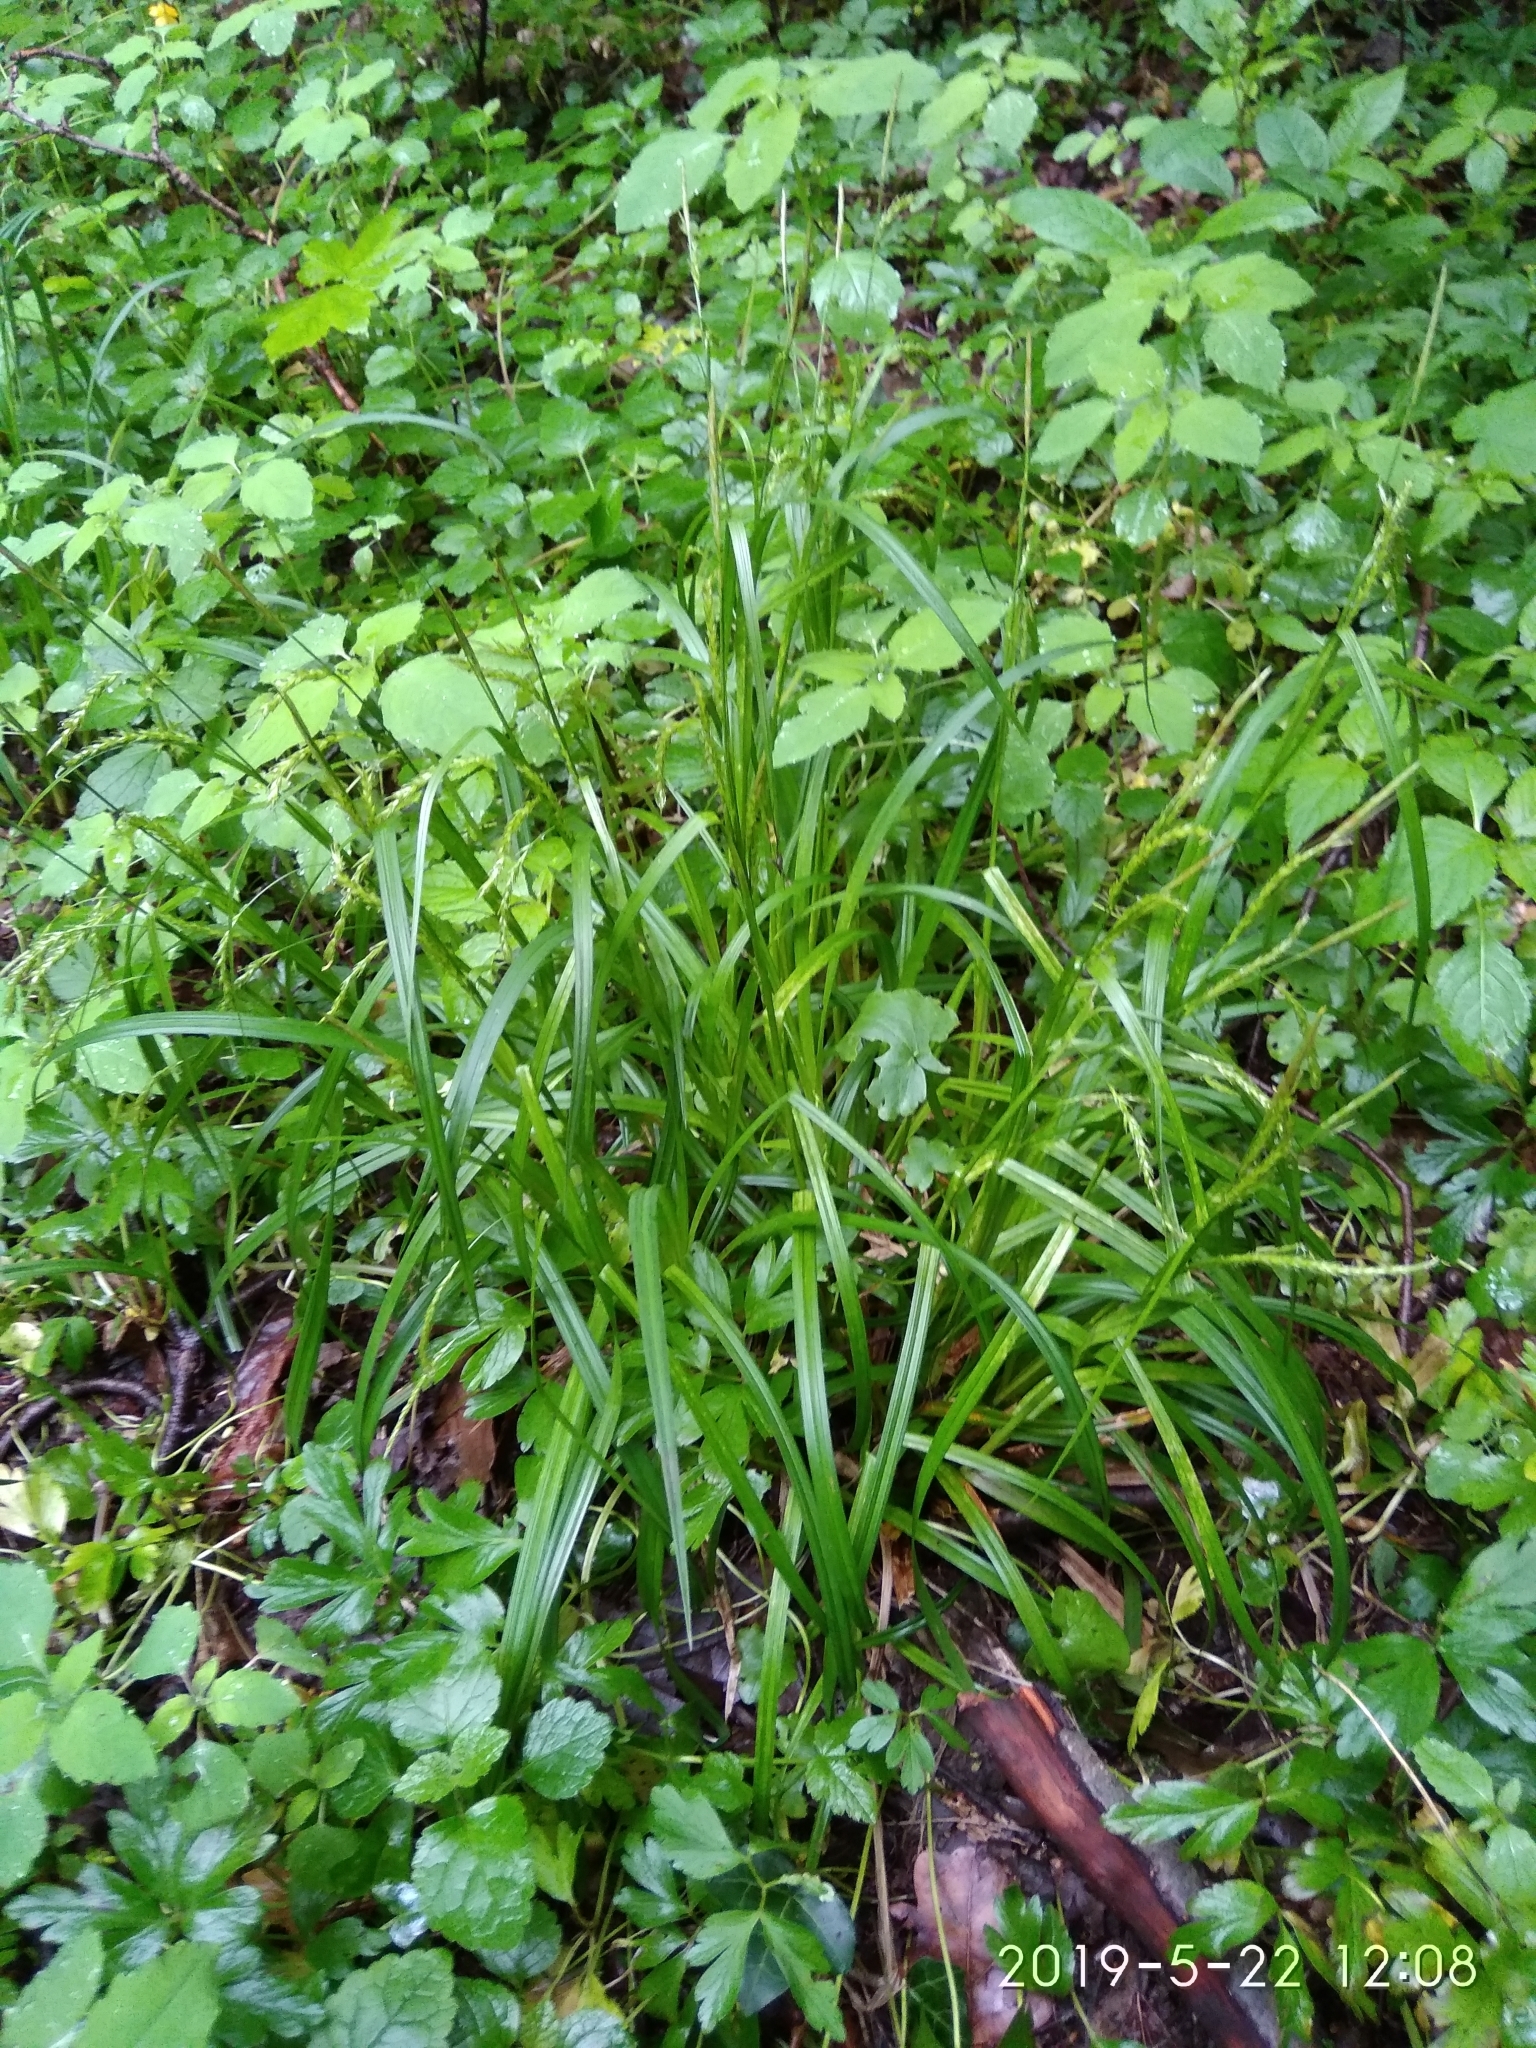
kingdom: Plantae
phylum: Tracheophyta
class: Liliopsida
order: Poales
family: Cyperaceae
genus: Carex
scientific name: Carex sylvatica
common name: Wood-sedge
